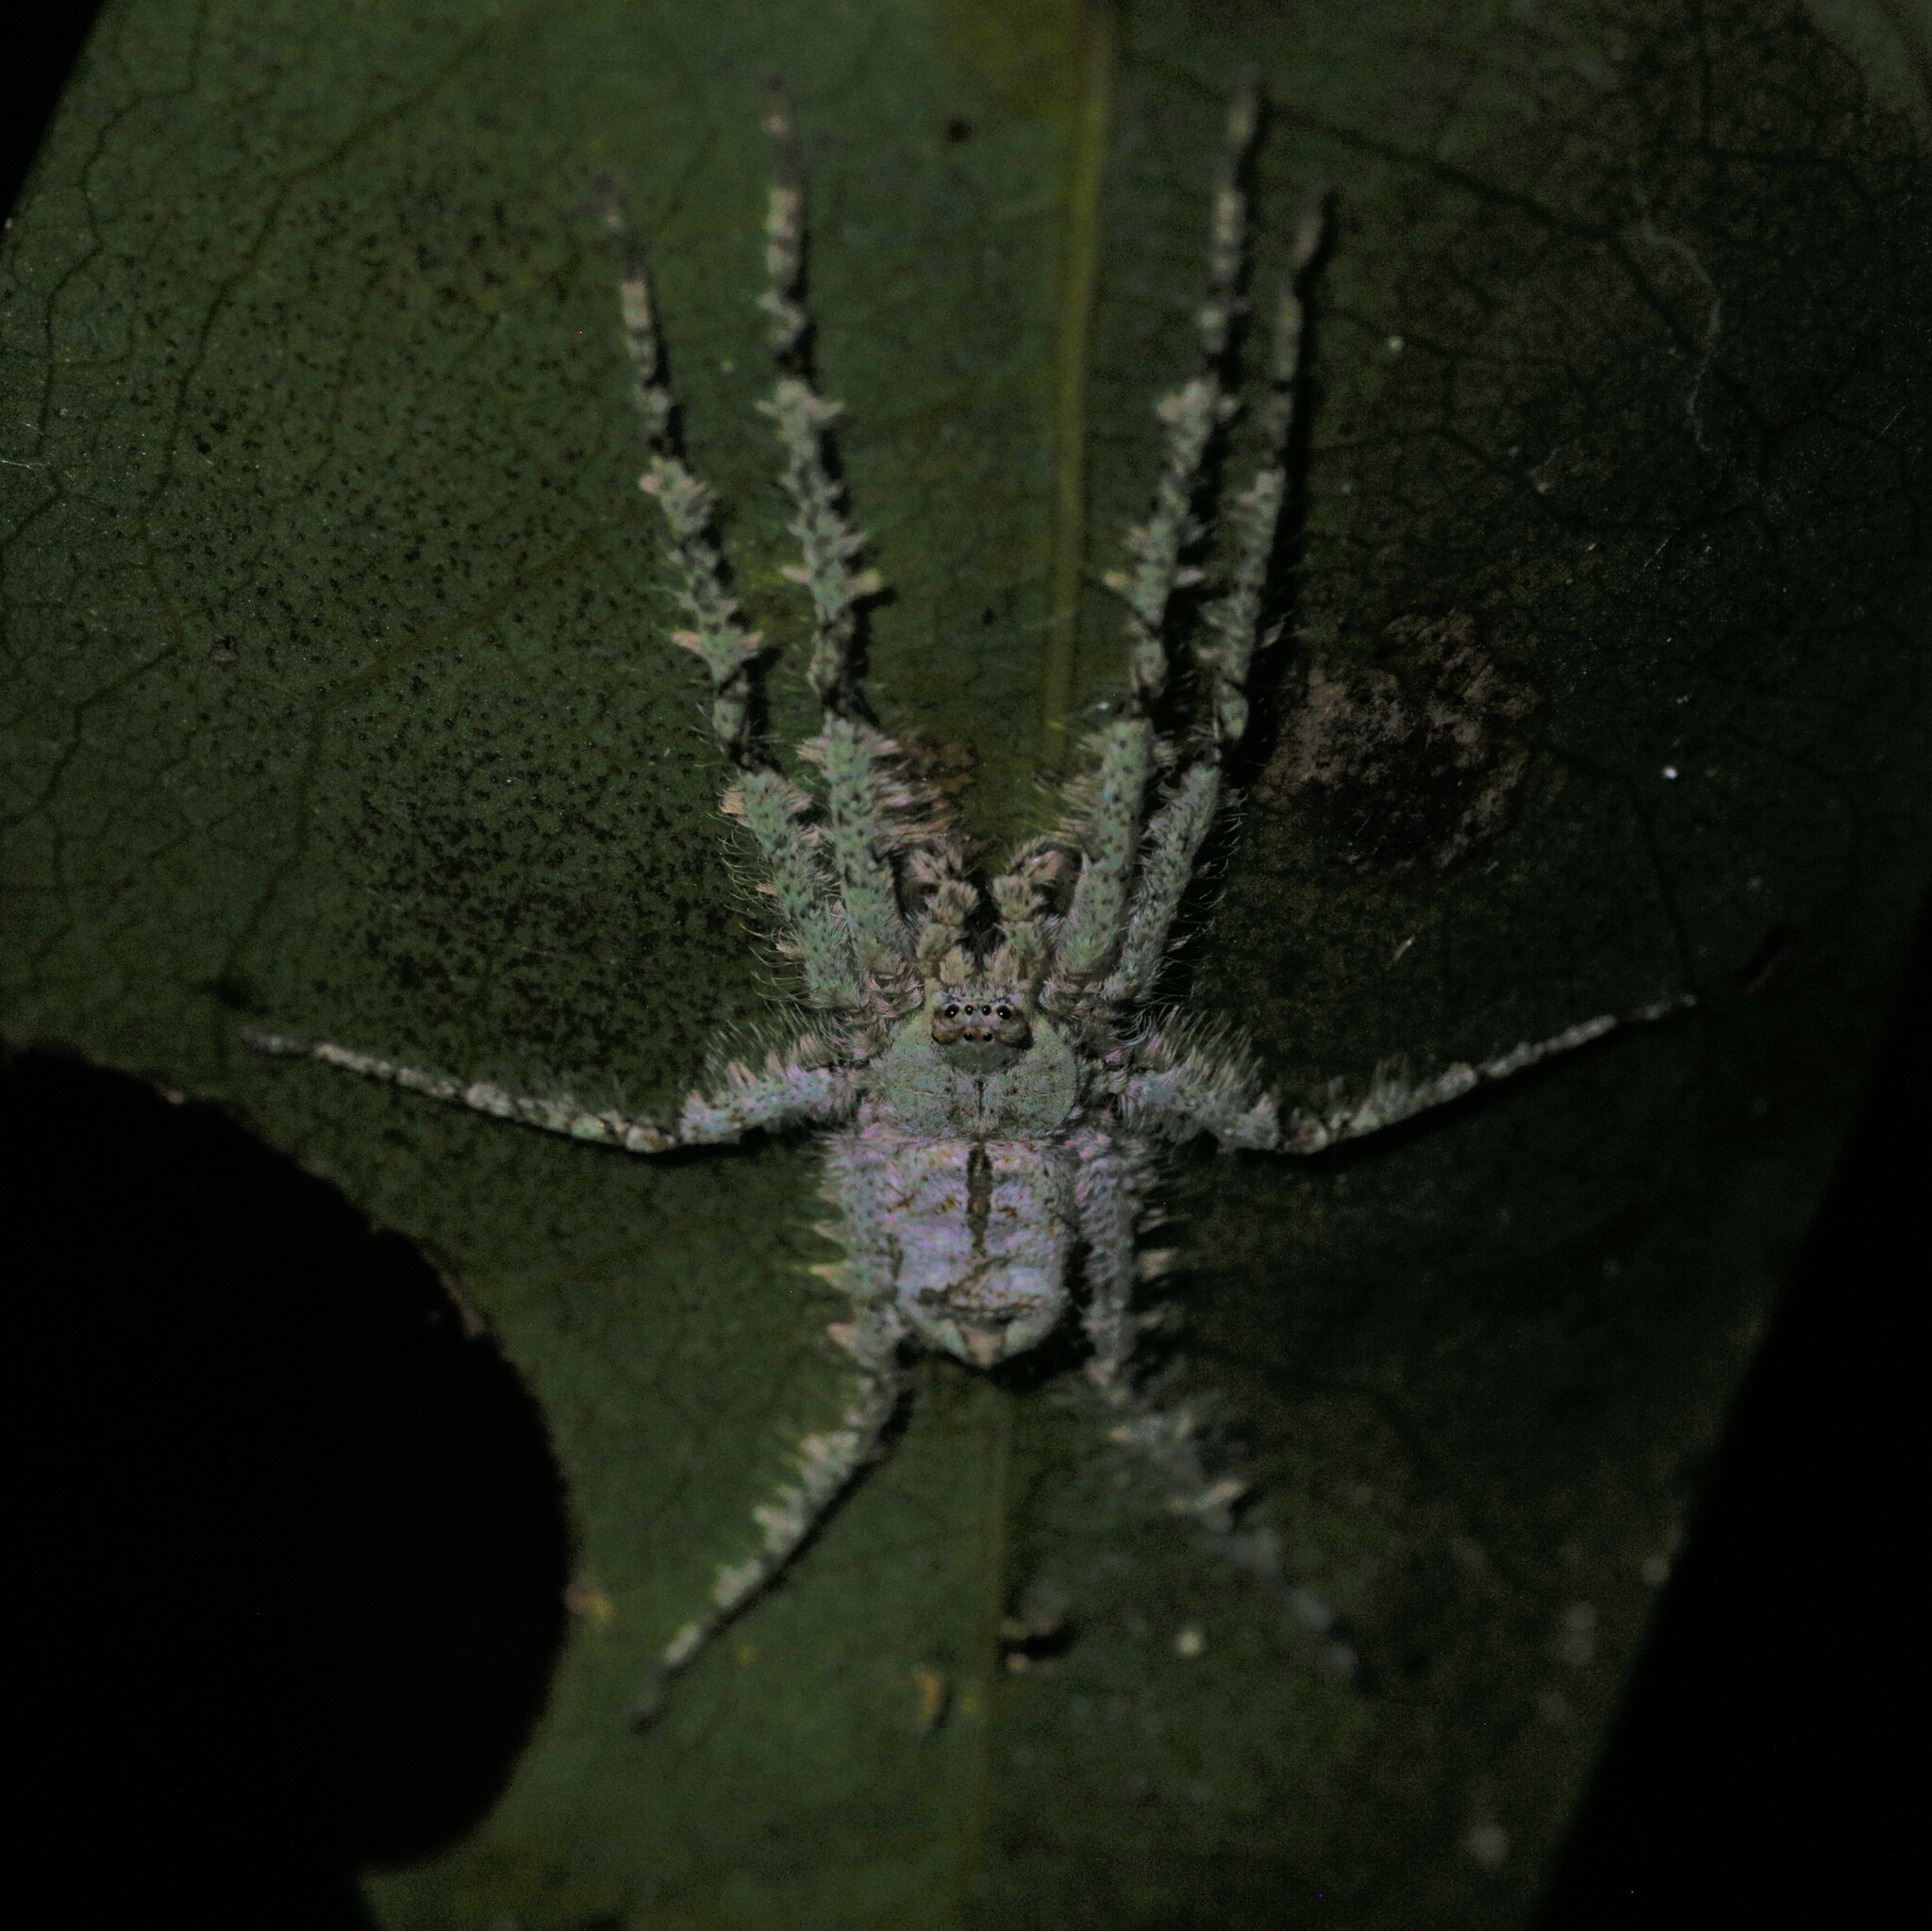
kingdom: Animalia
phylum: Arthropoda
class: Arachnida
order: Araneae
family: Sparassidae
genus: Pandercetes
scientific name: Pandercetes gracilis
